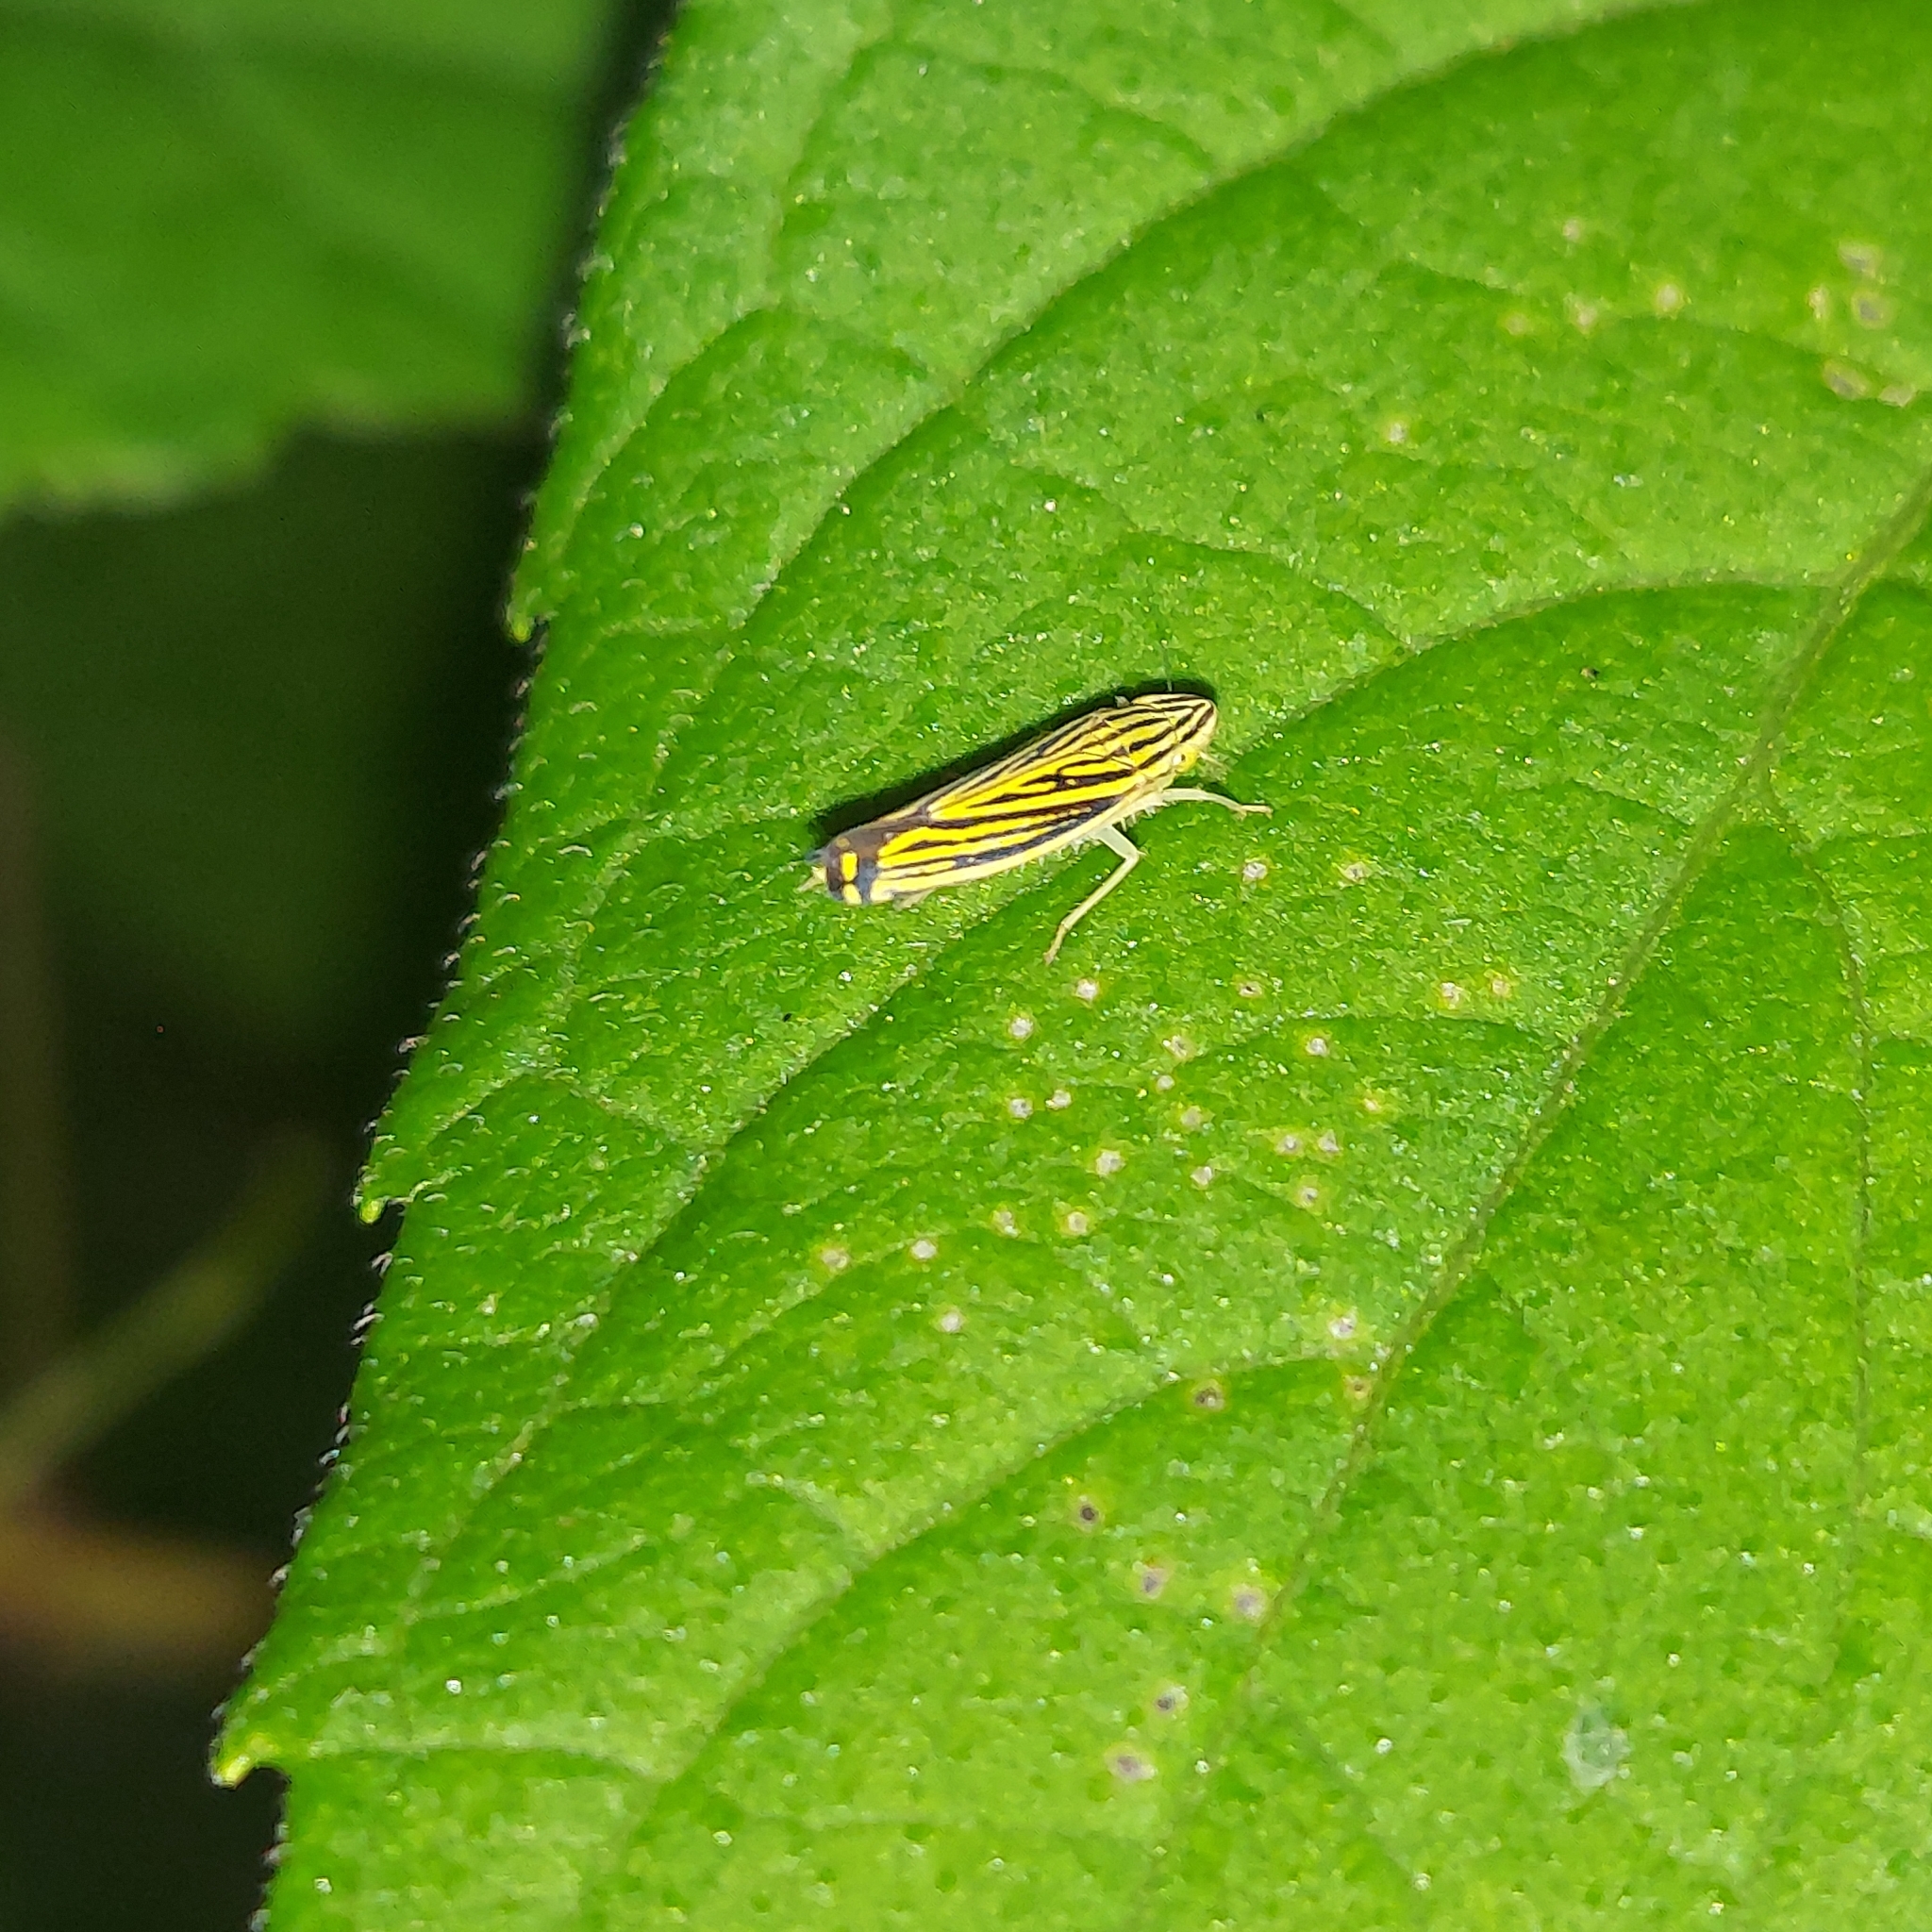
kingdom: Animalia
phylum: Arthropoda
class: Insecta
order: Hemiptera
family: Cicadellidae
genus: Sibovia
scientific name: Sibovia occatoria
